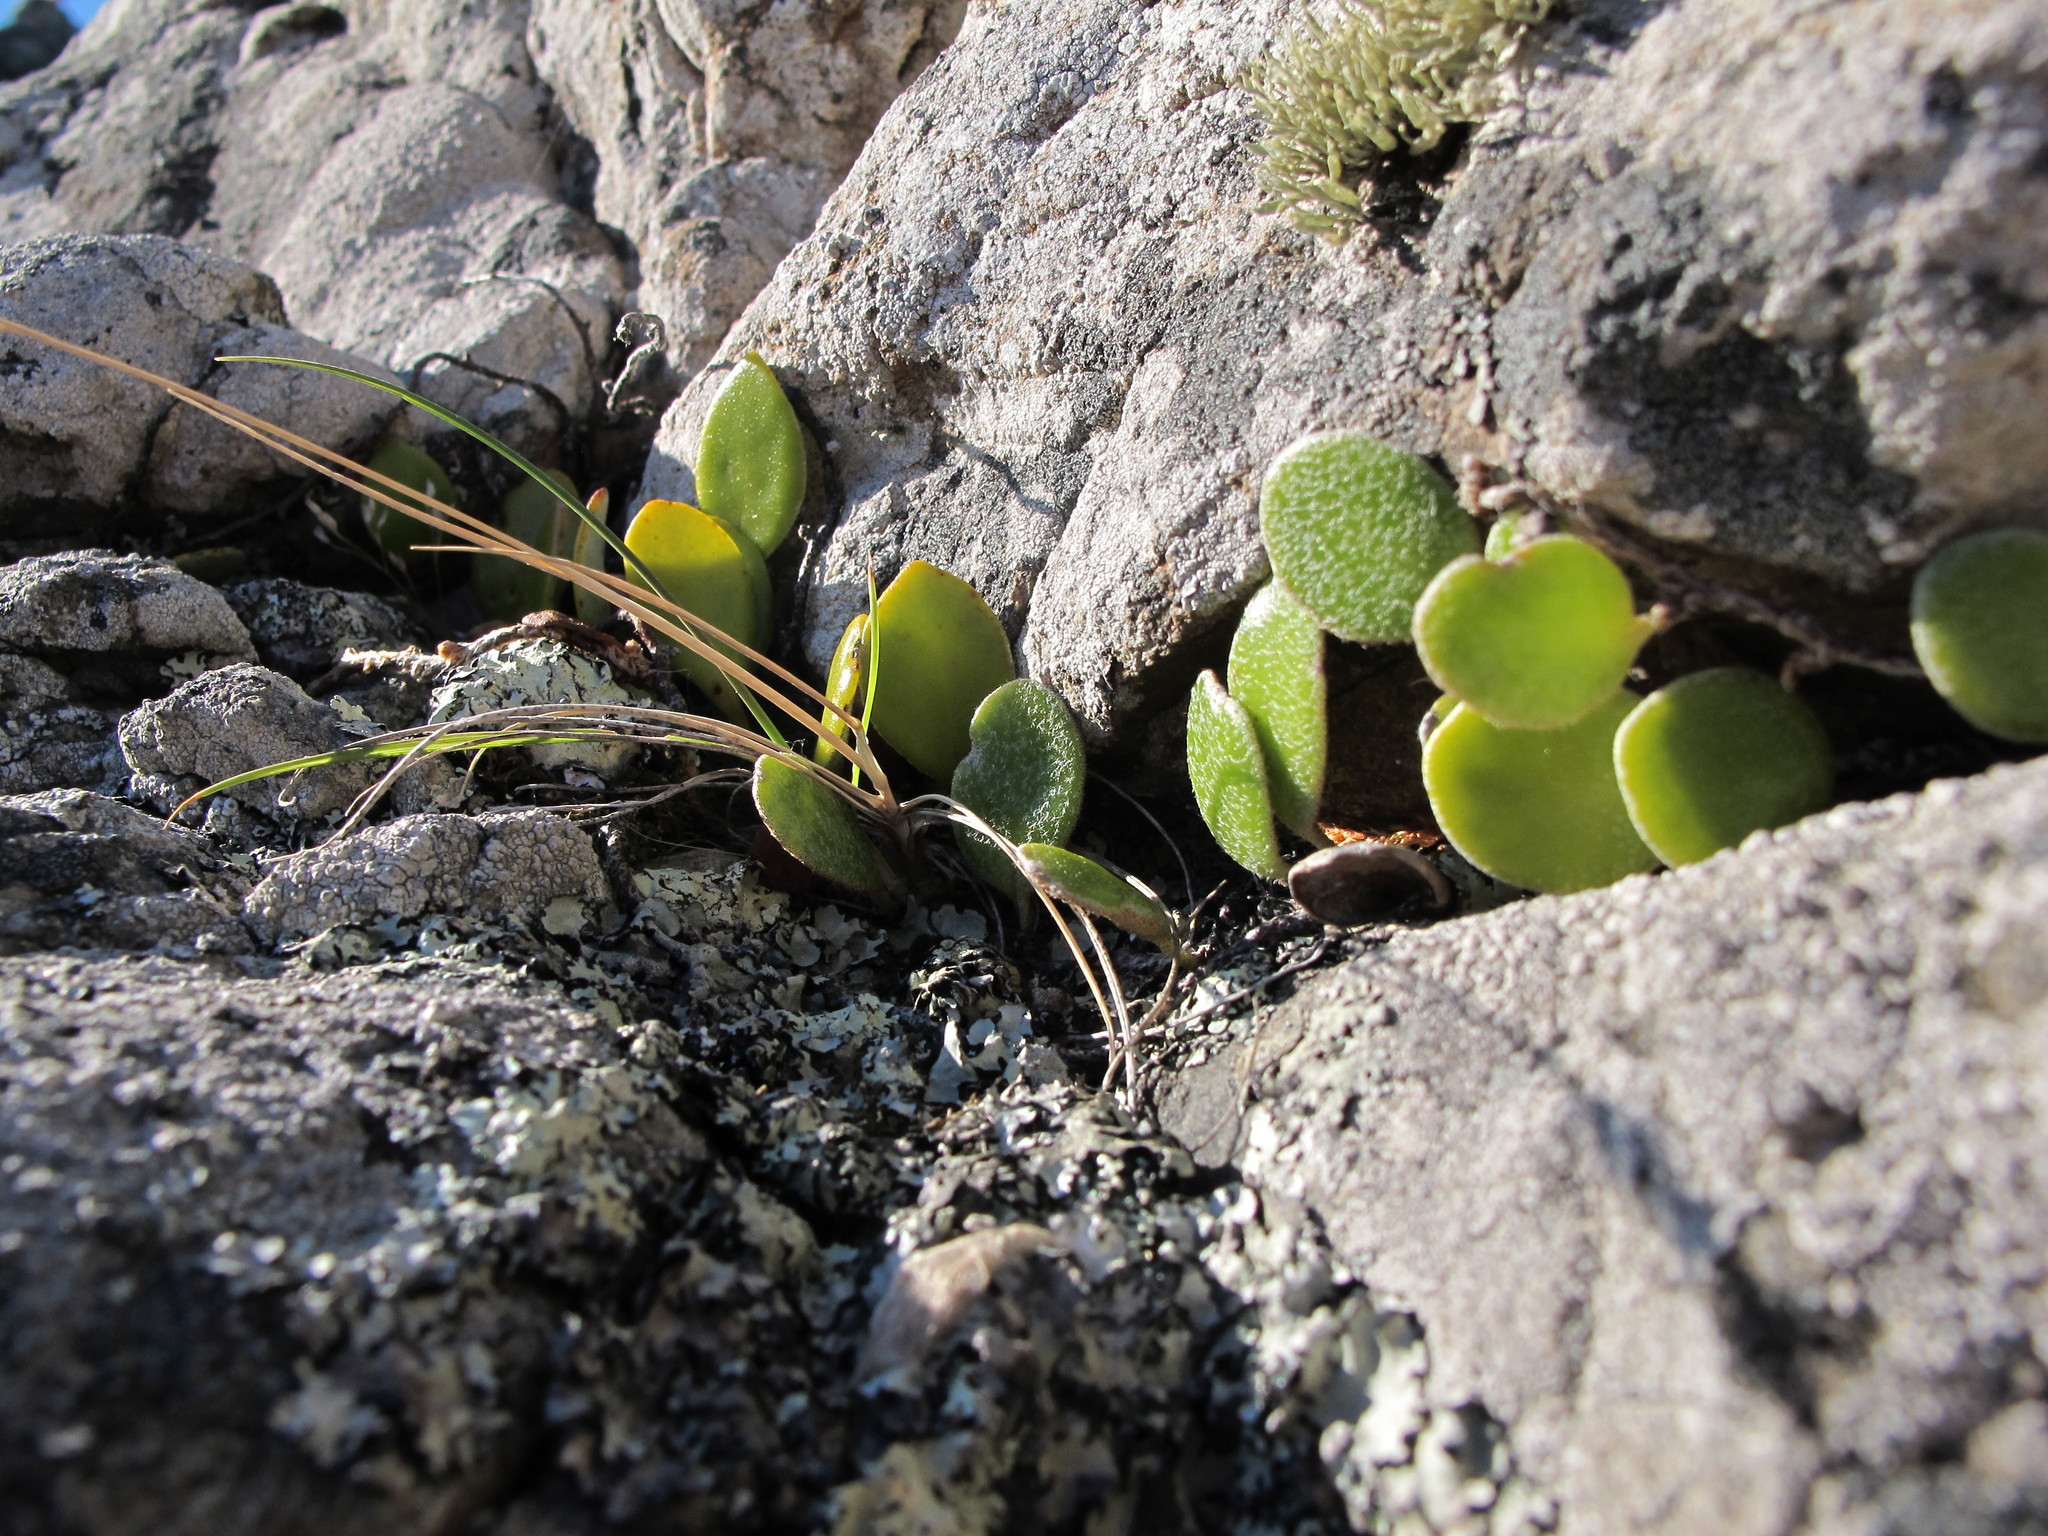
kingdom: Plantae
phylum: Tracheophyta
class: Polypodiopsida
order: Polypodiales
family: Polypodiaceae
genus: Pyrrosia
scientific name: Pyrrosia eleagnifolia
